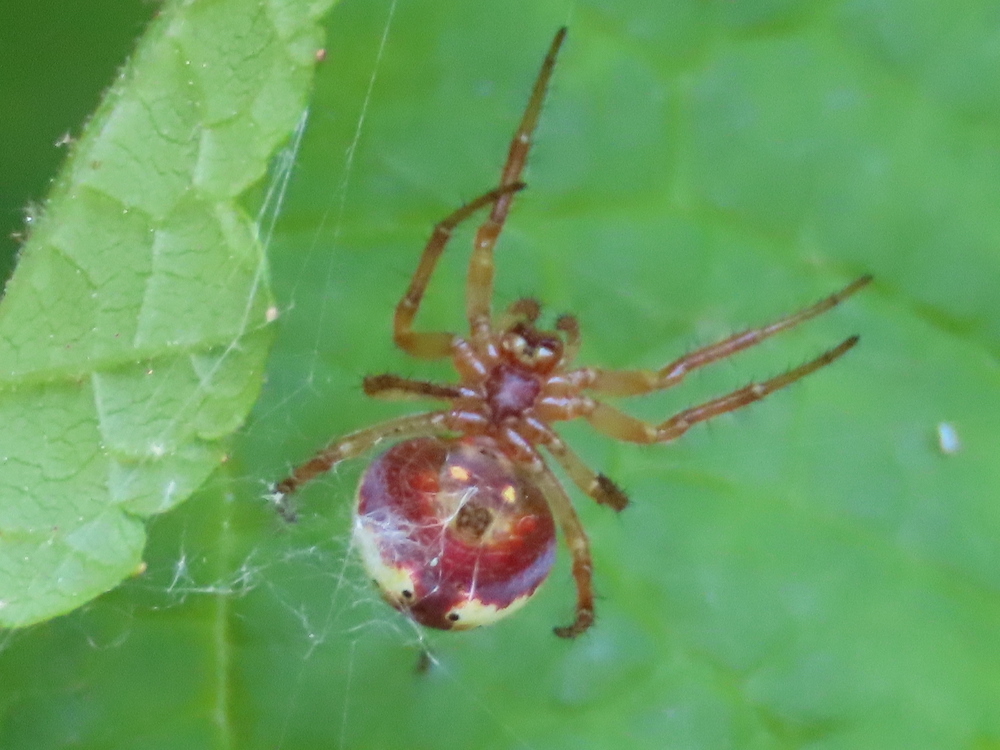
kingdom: Animalia
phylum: Arthropoda
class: Arachnida
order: Araneae
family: Araneidae
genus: Araniella
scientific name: Araniella displicata
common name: Sixspotted orb weaver
